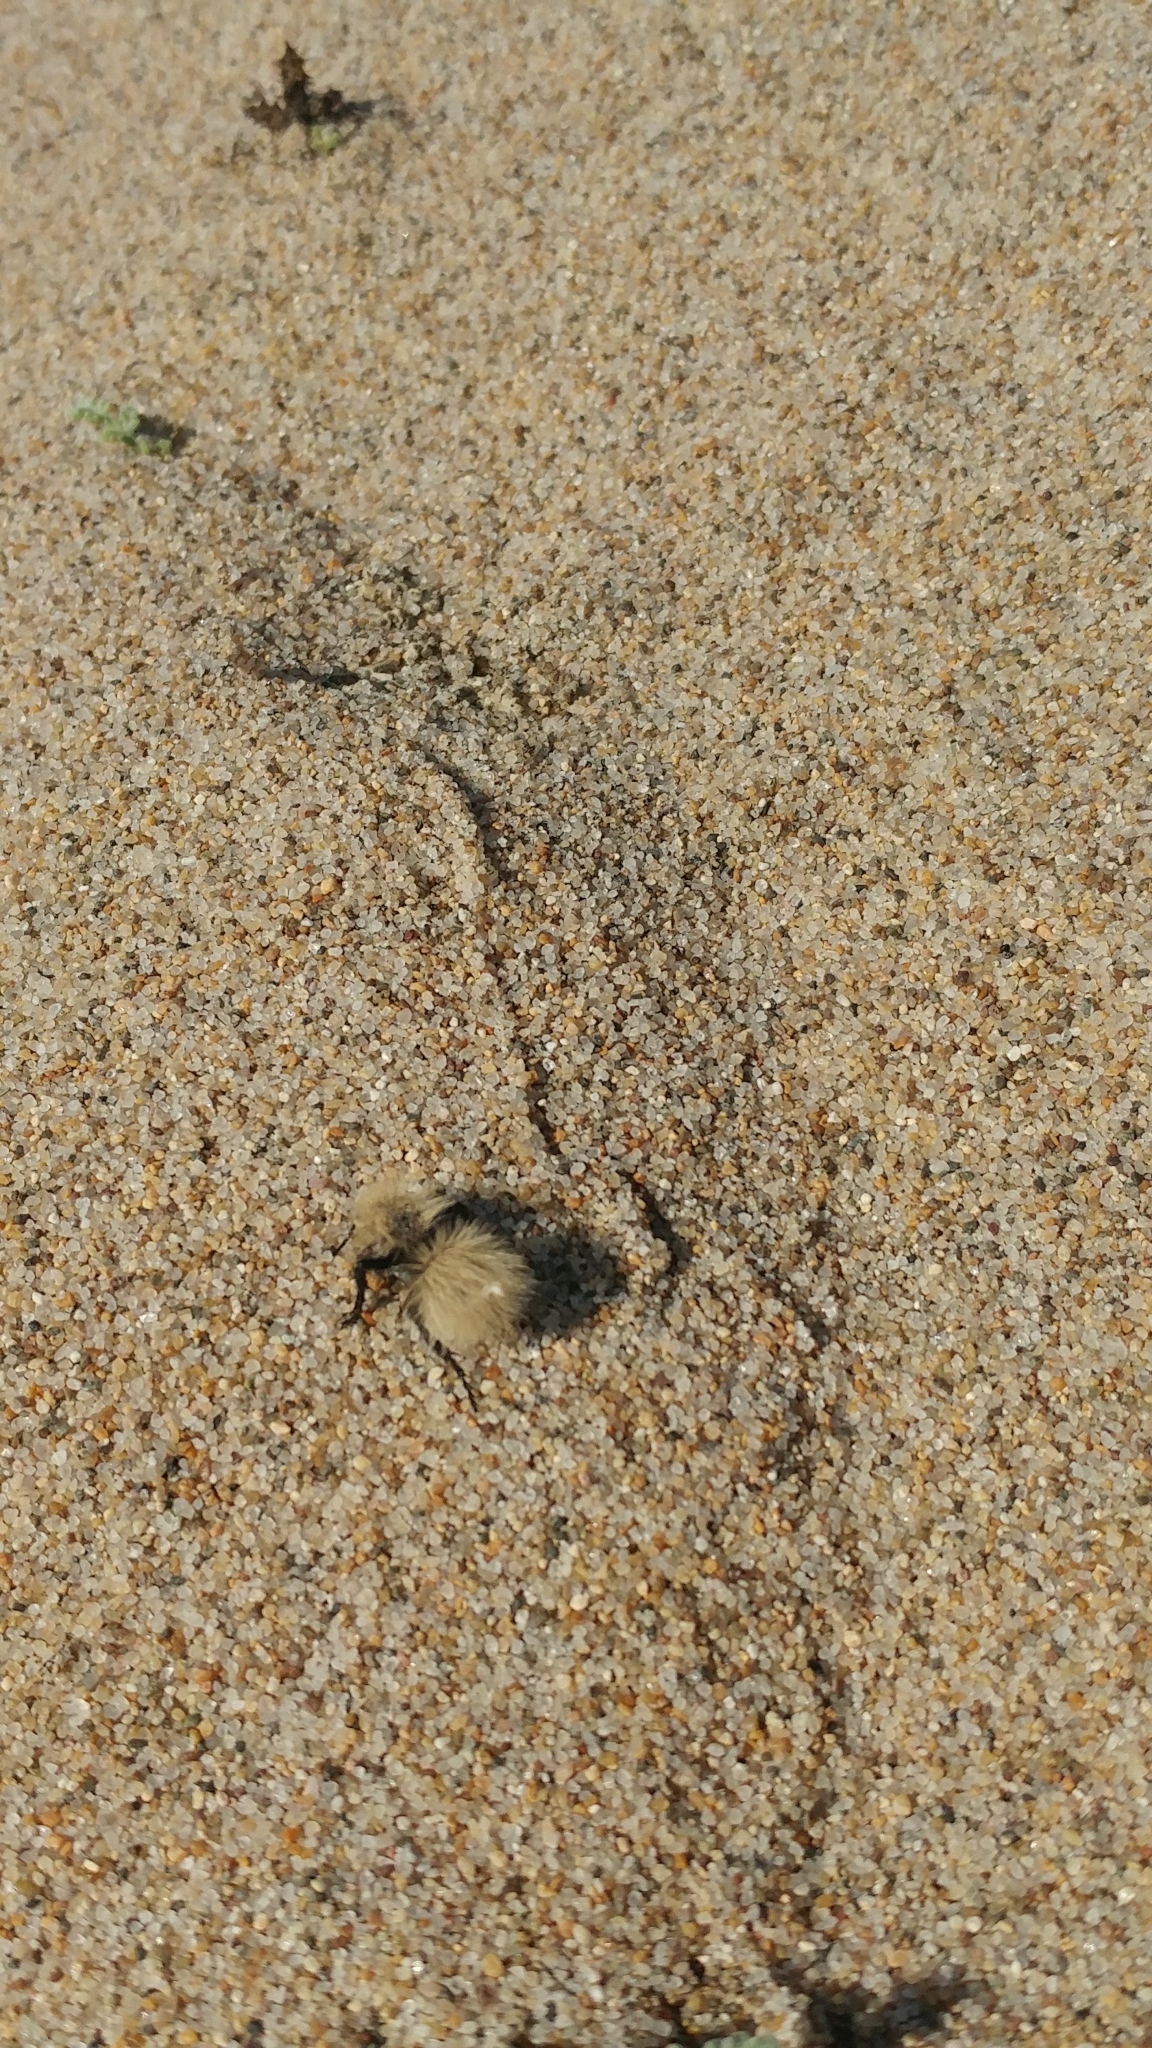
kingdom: Animalia
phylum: Arthropoda
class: Insecta
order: Hymenoptera
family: Mutillidae
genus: Dasymutilla
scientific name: Dasymutilla
